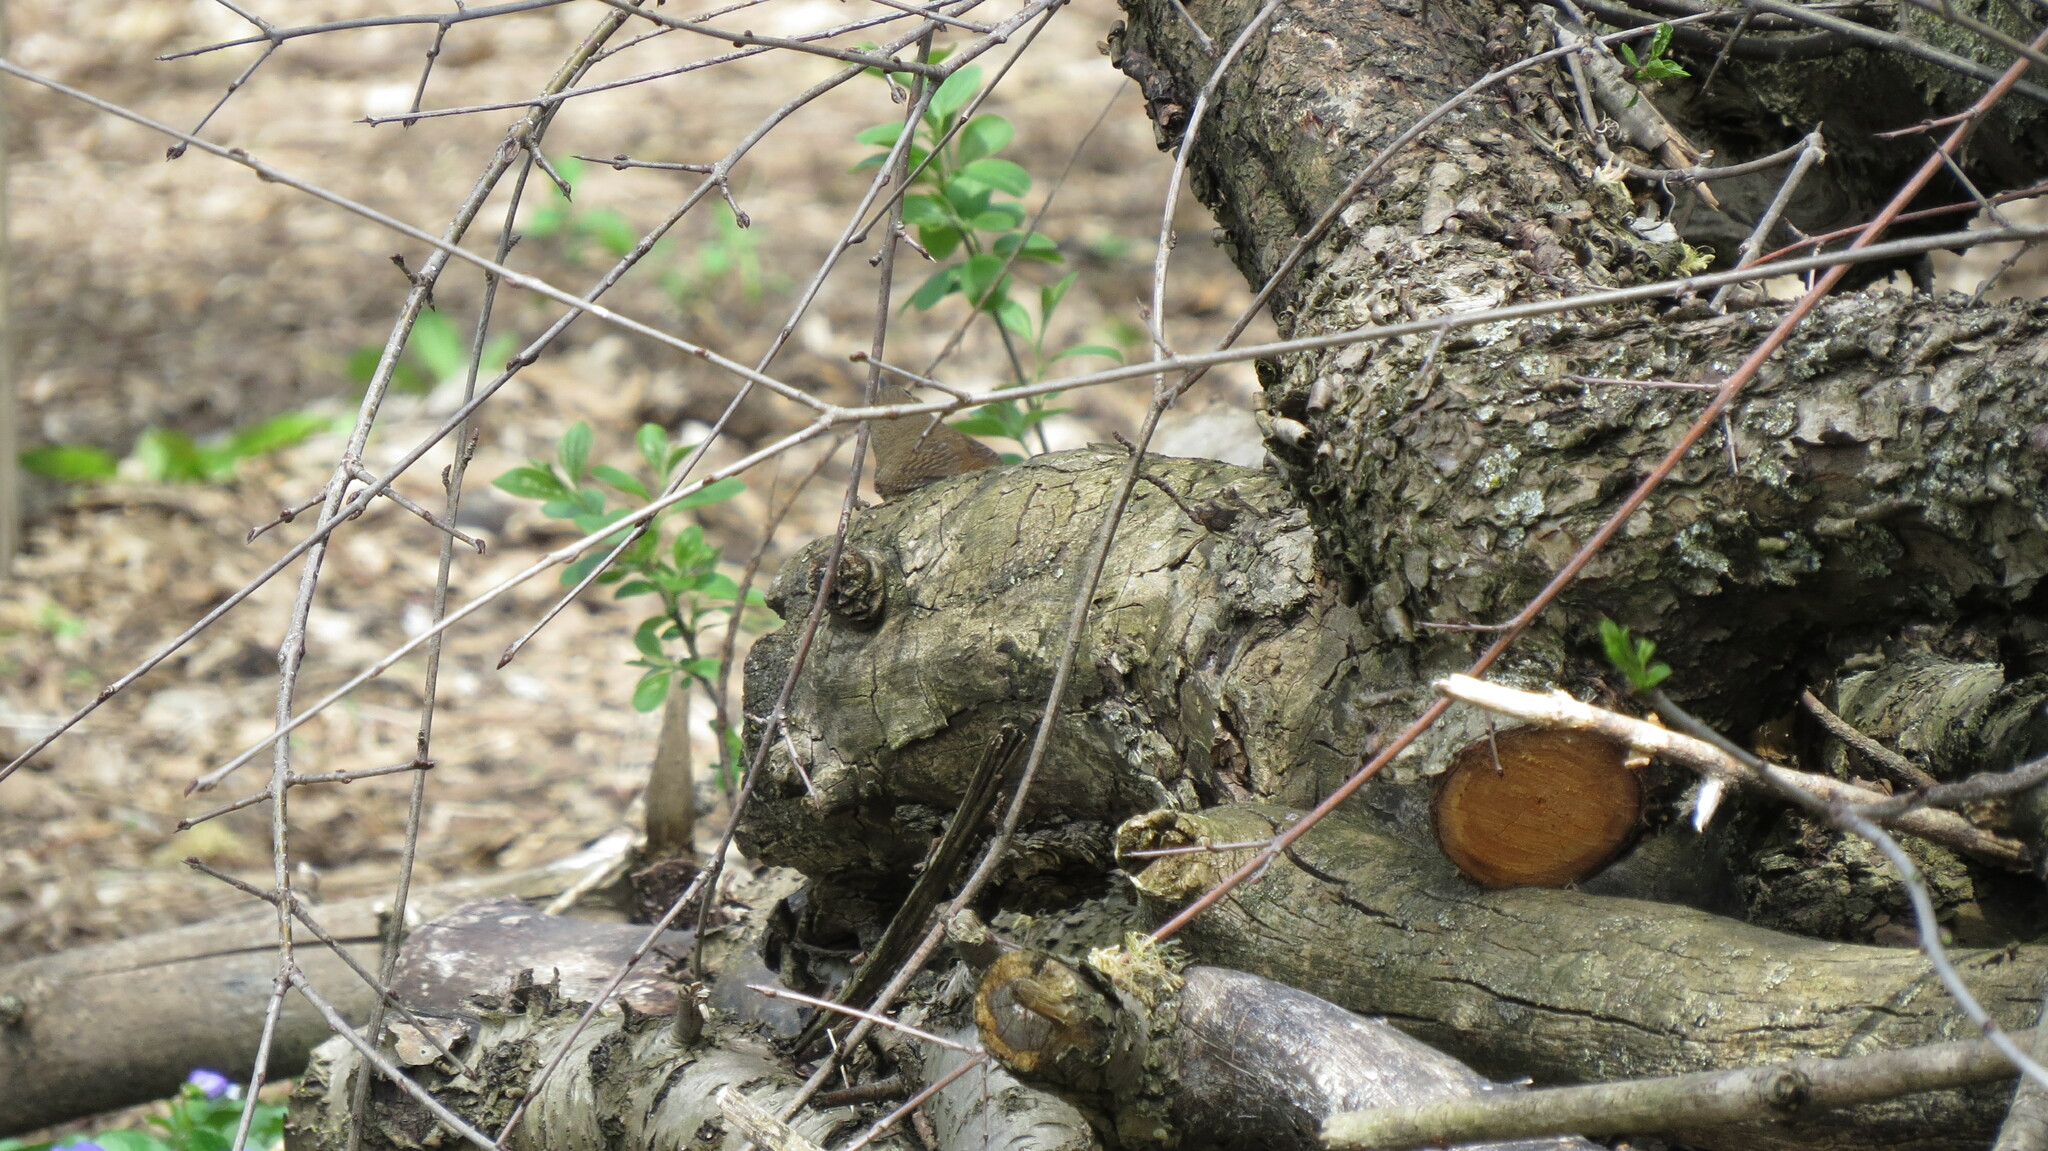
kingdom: Animalia
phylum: Chordata
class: Aves
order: Passeriformes
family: Troglodytidae
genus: Troglodytes
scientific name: Troglodytes aedon
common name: House wren
